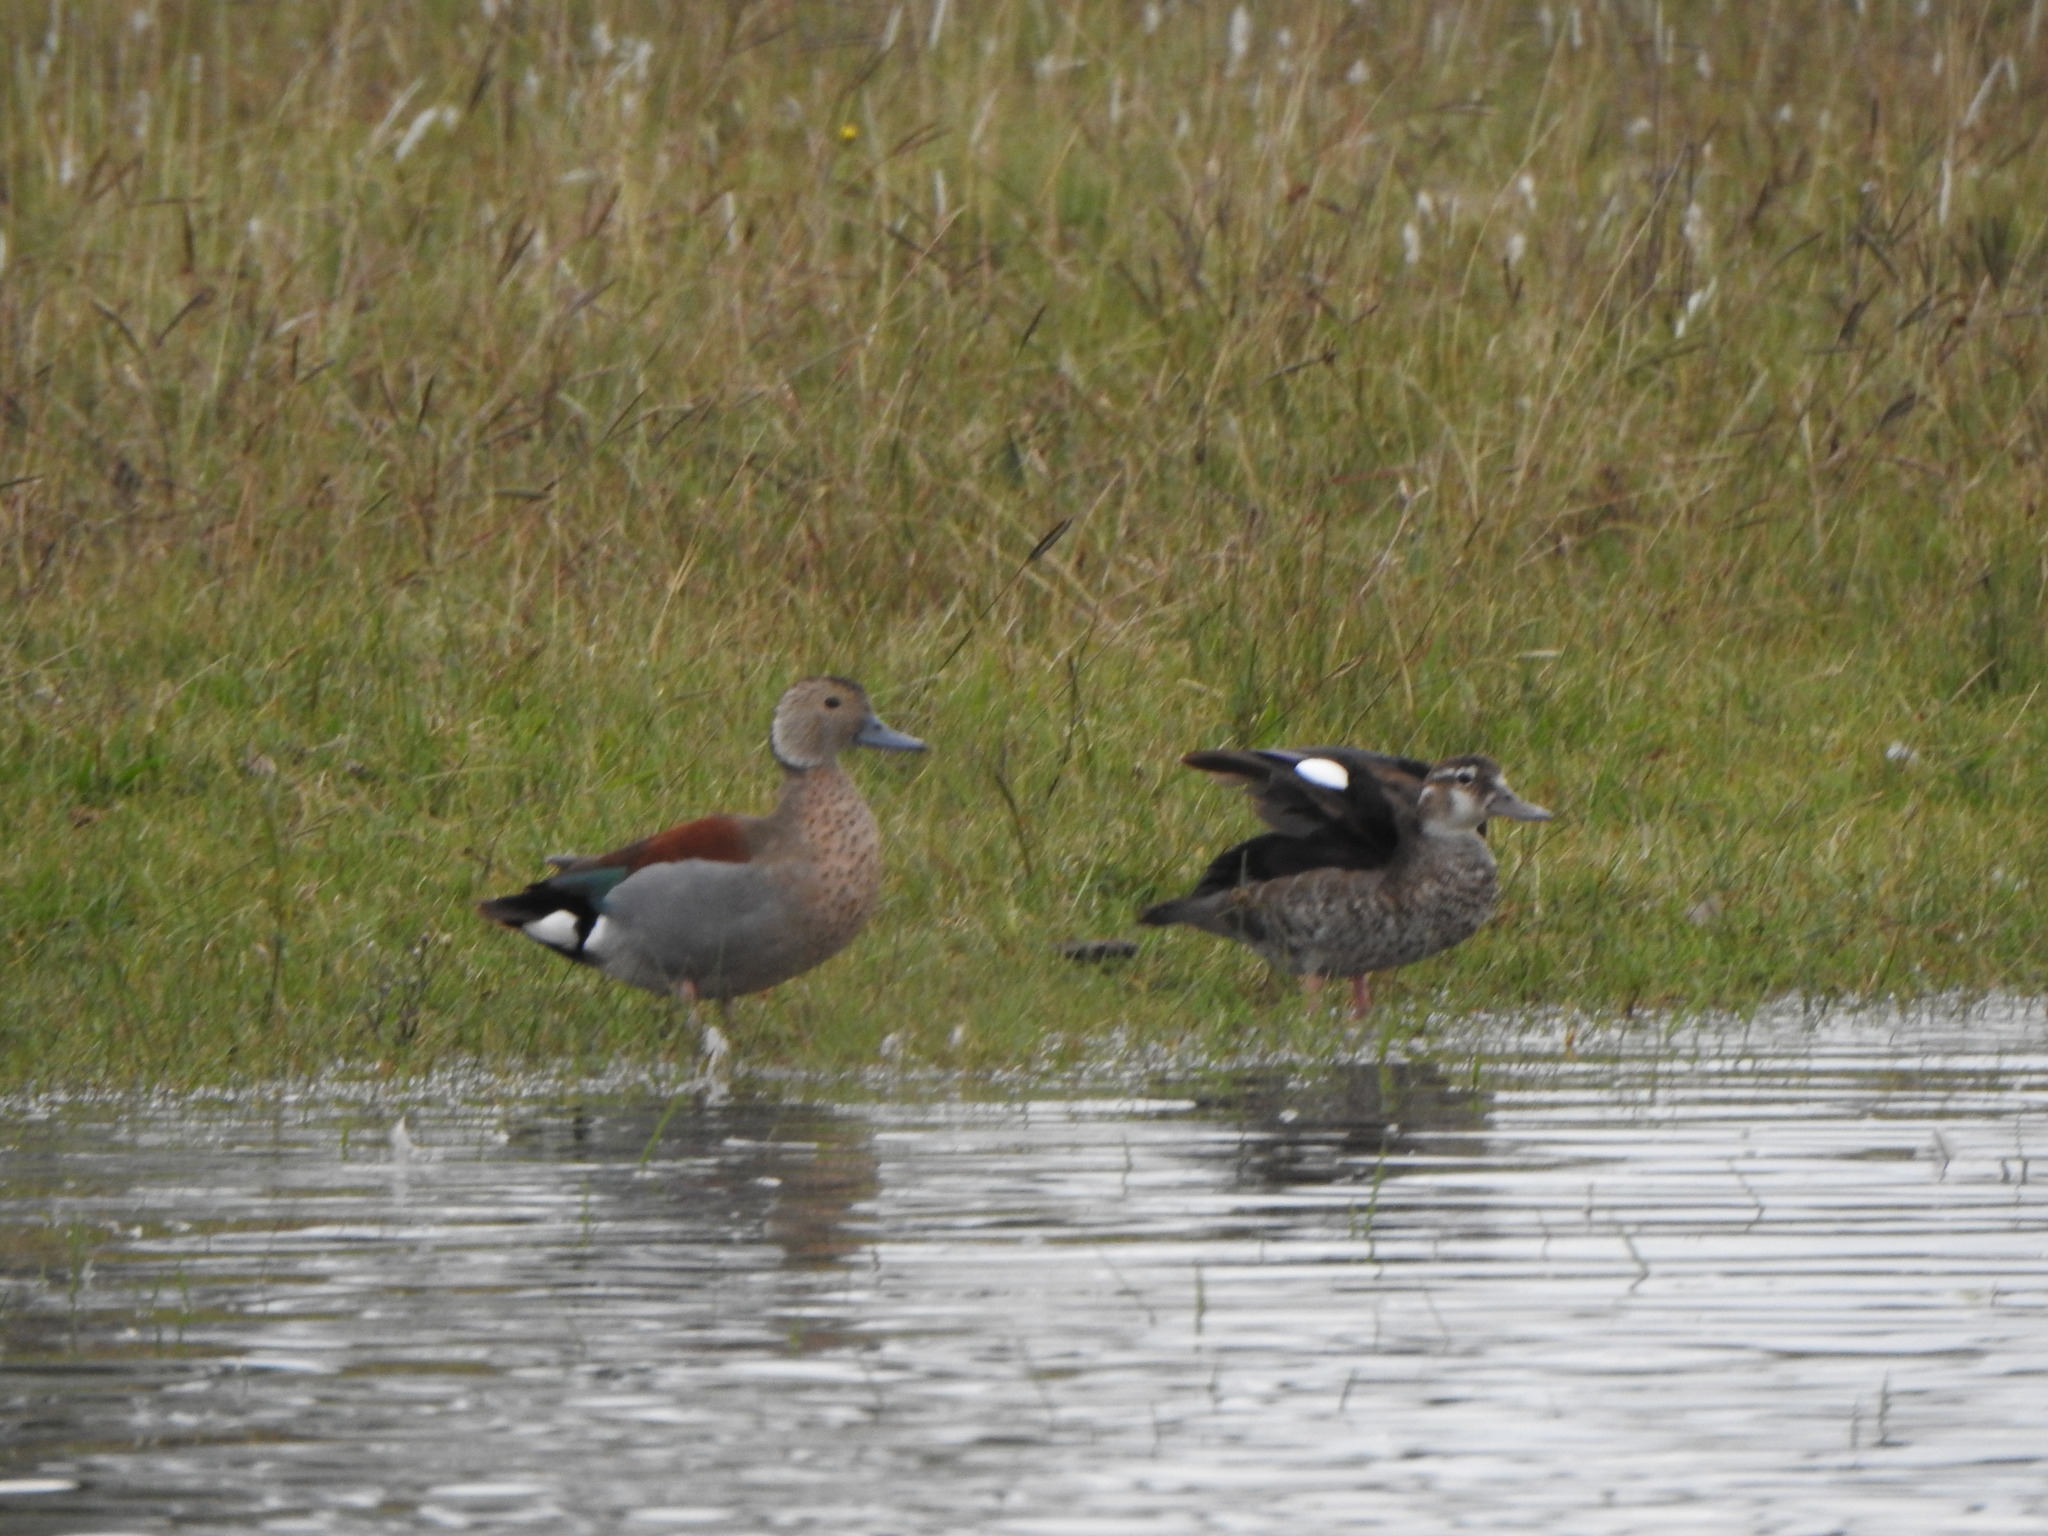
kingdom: Animalia
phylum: Chordata
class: Aves
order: Anseriformes
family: Anatidae
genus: Callonetta
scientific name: Callonetta leucophrys
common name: Ringed teal
